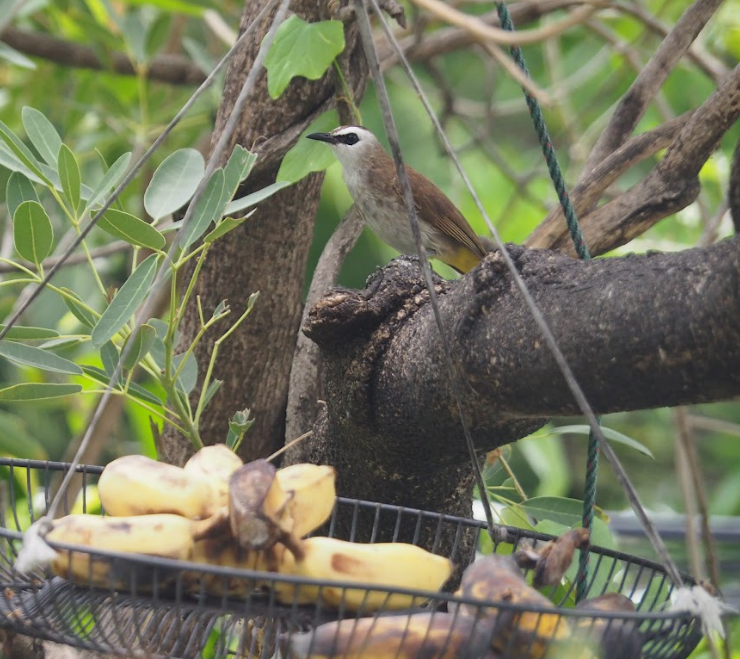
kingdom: Animalia
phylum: Chordata
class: Aves
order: Passeriformes
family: Pycnonotidae
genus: Pycnonotus
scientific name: Pycnonotus goiavier
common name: Yellow-vented bulbul
